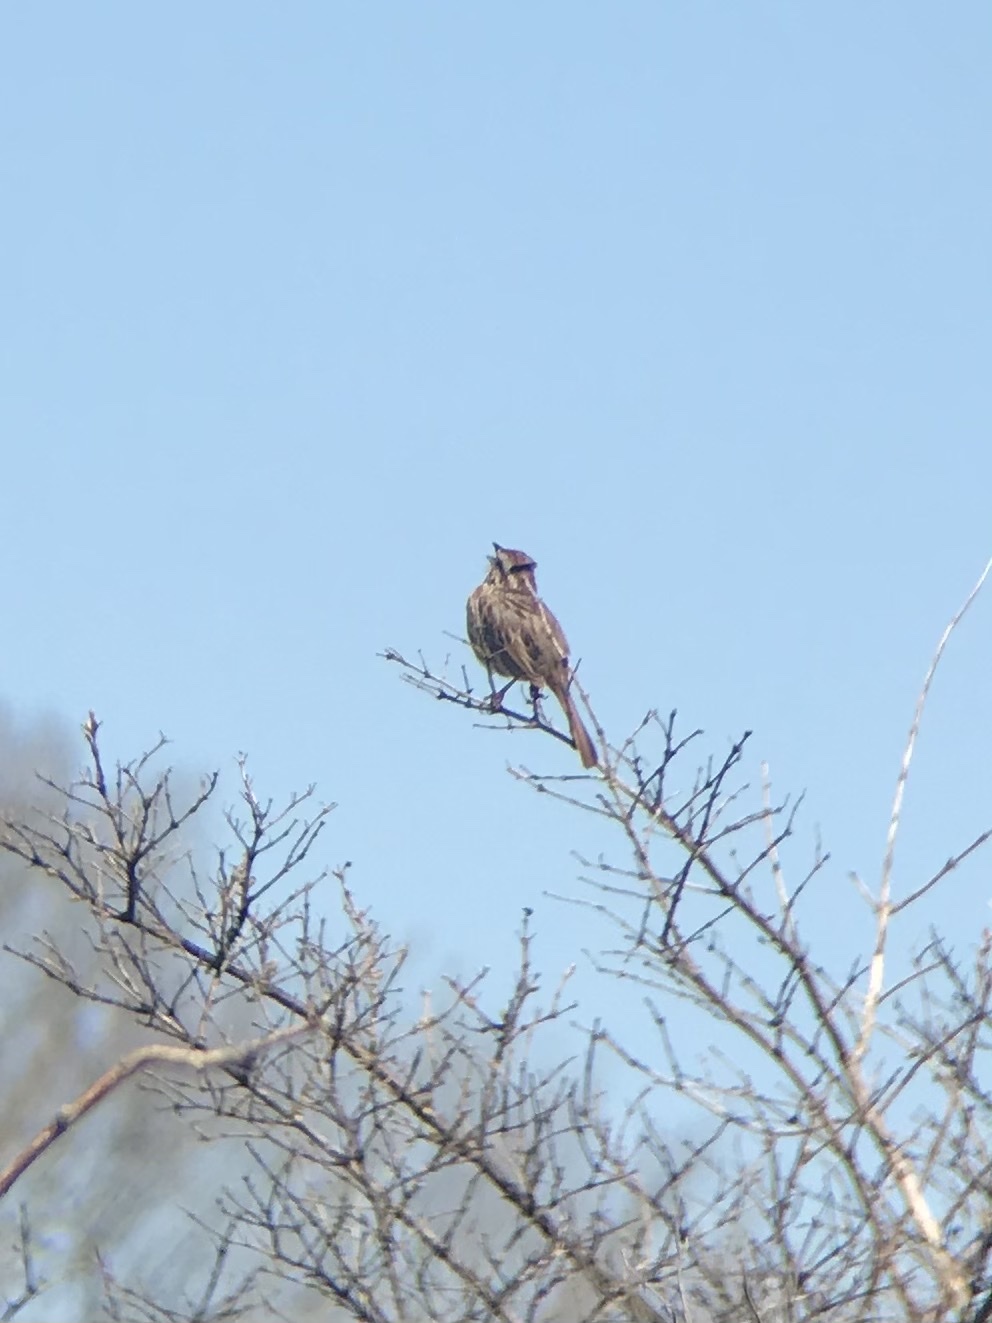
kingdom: Animalia
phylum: Chordata
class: Aves
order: Passeriformes
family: Passerellidae
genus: Melospiza
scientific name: Melospiza melodia
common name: Song sparrow
